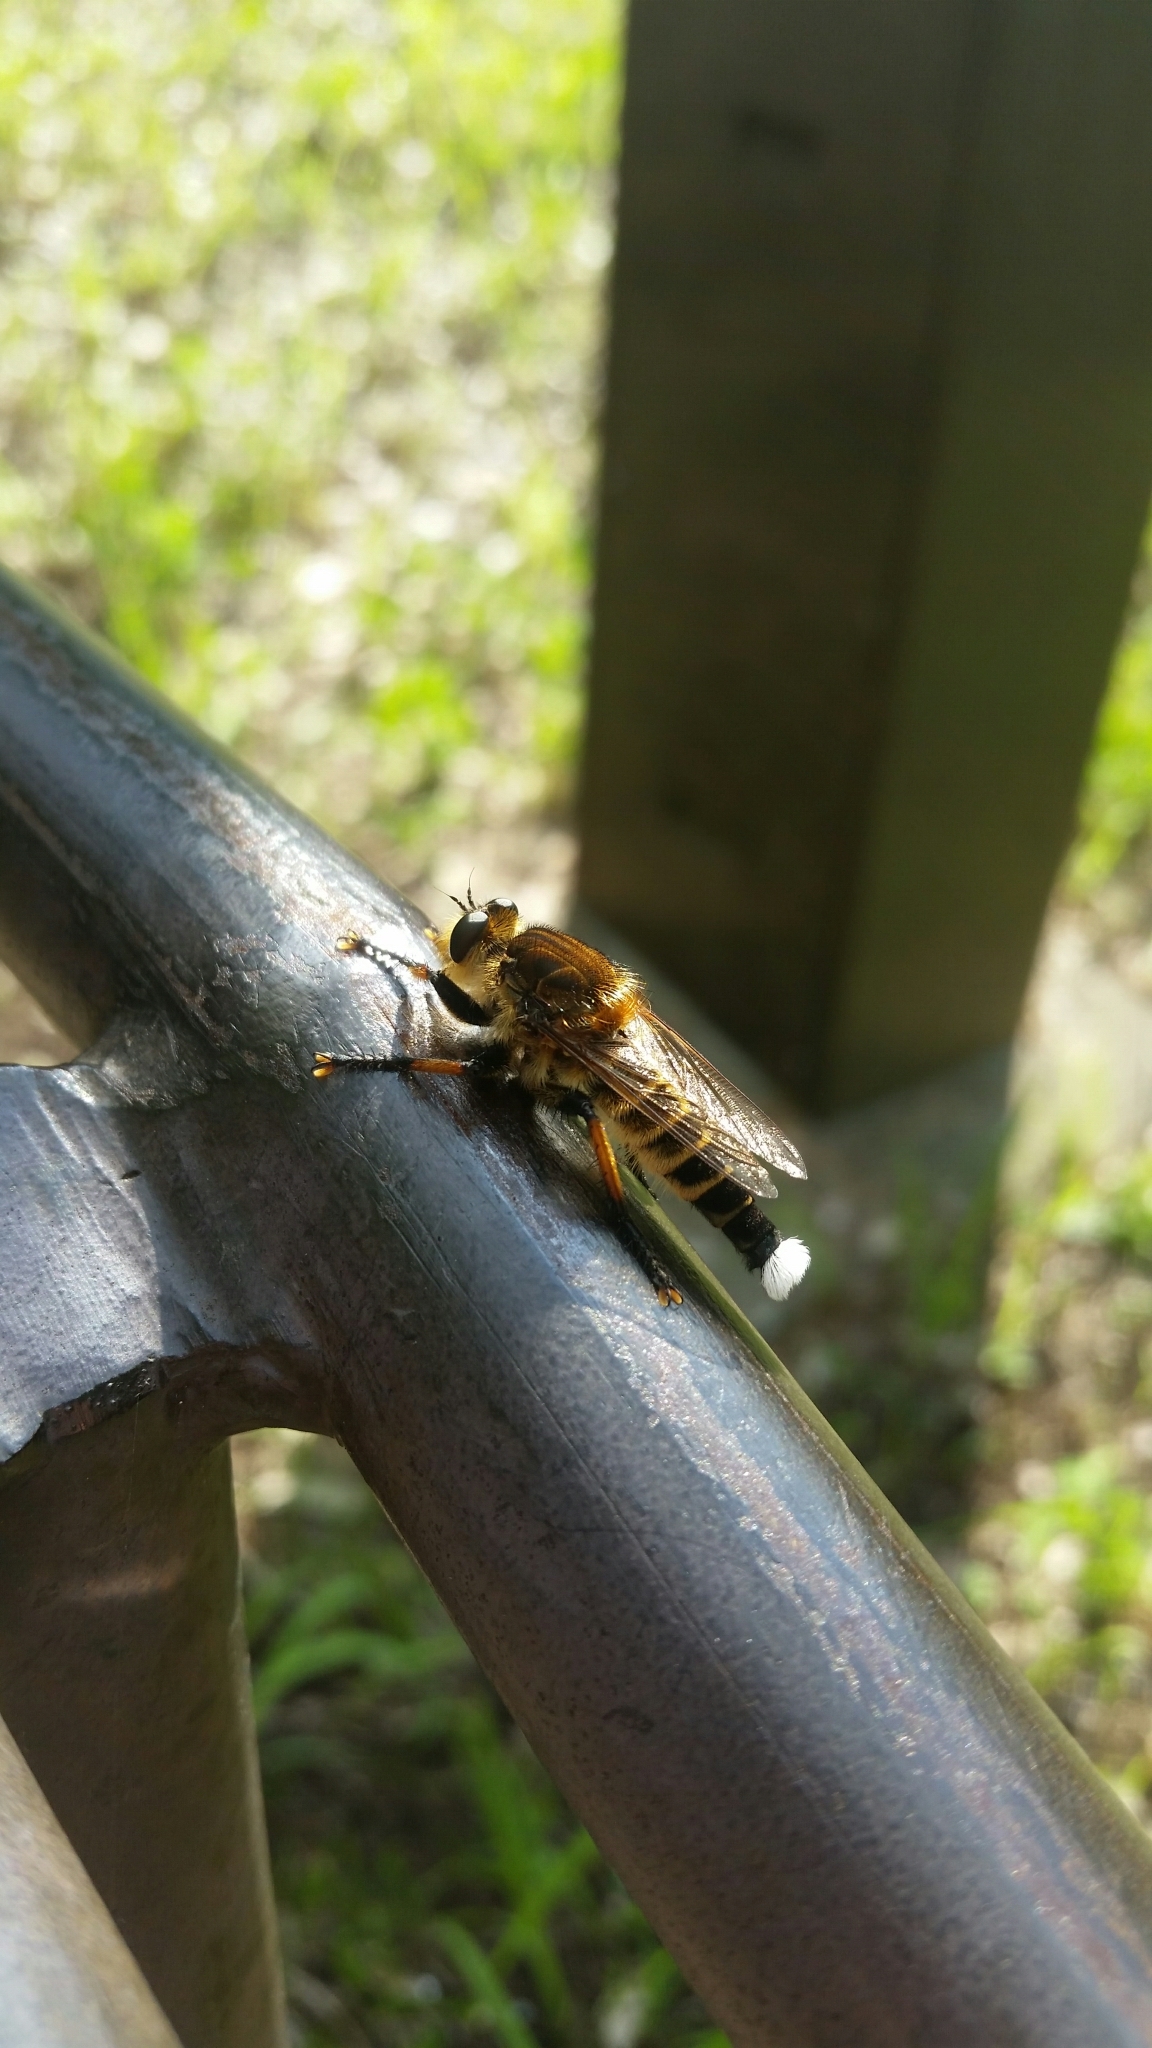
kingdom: Animalia
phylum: Arthropoda
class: Insecta
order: Diptera
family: Asilidae
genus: Promachus
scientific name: Promachus yesonicus
